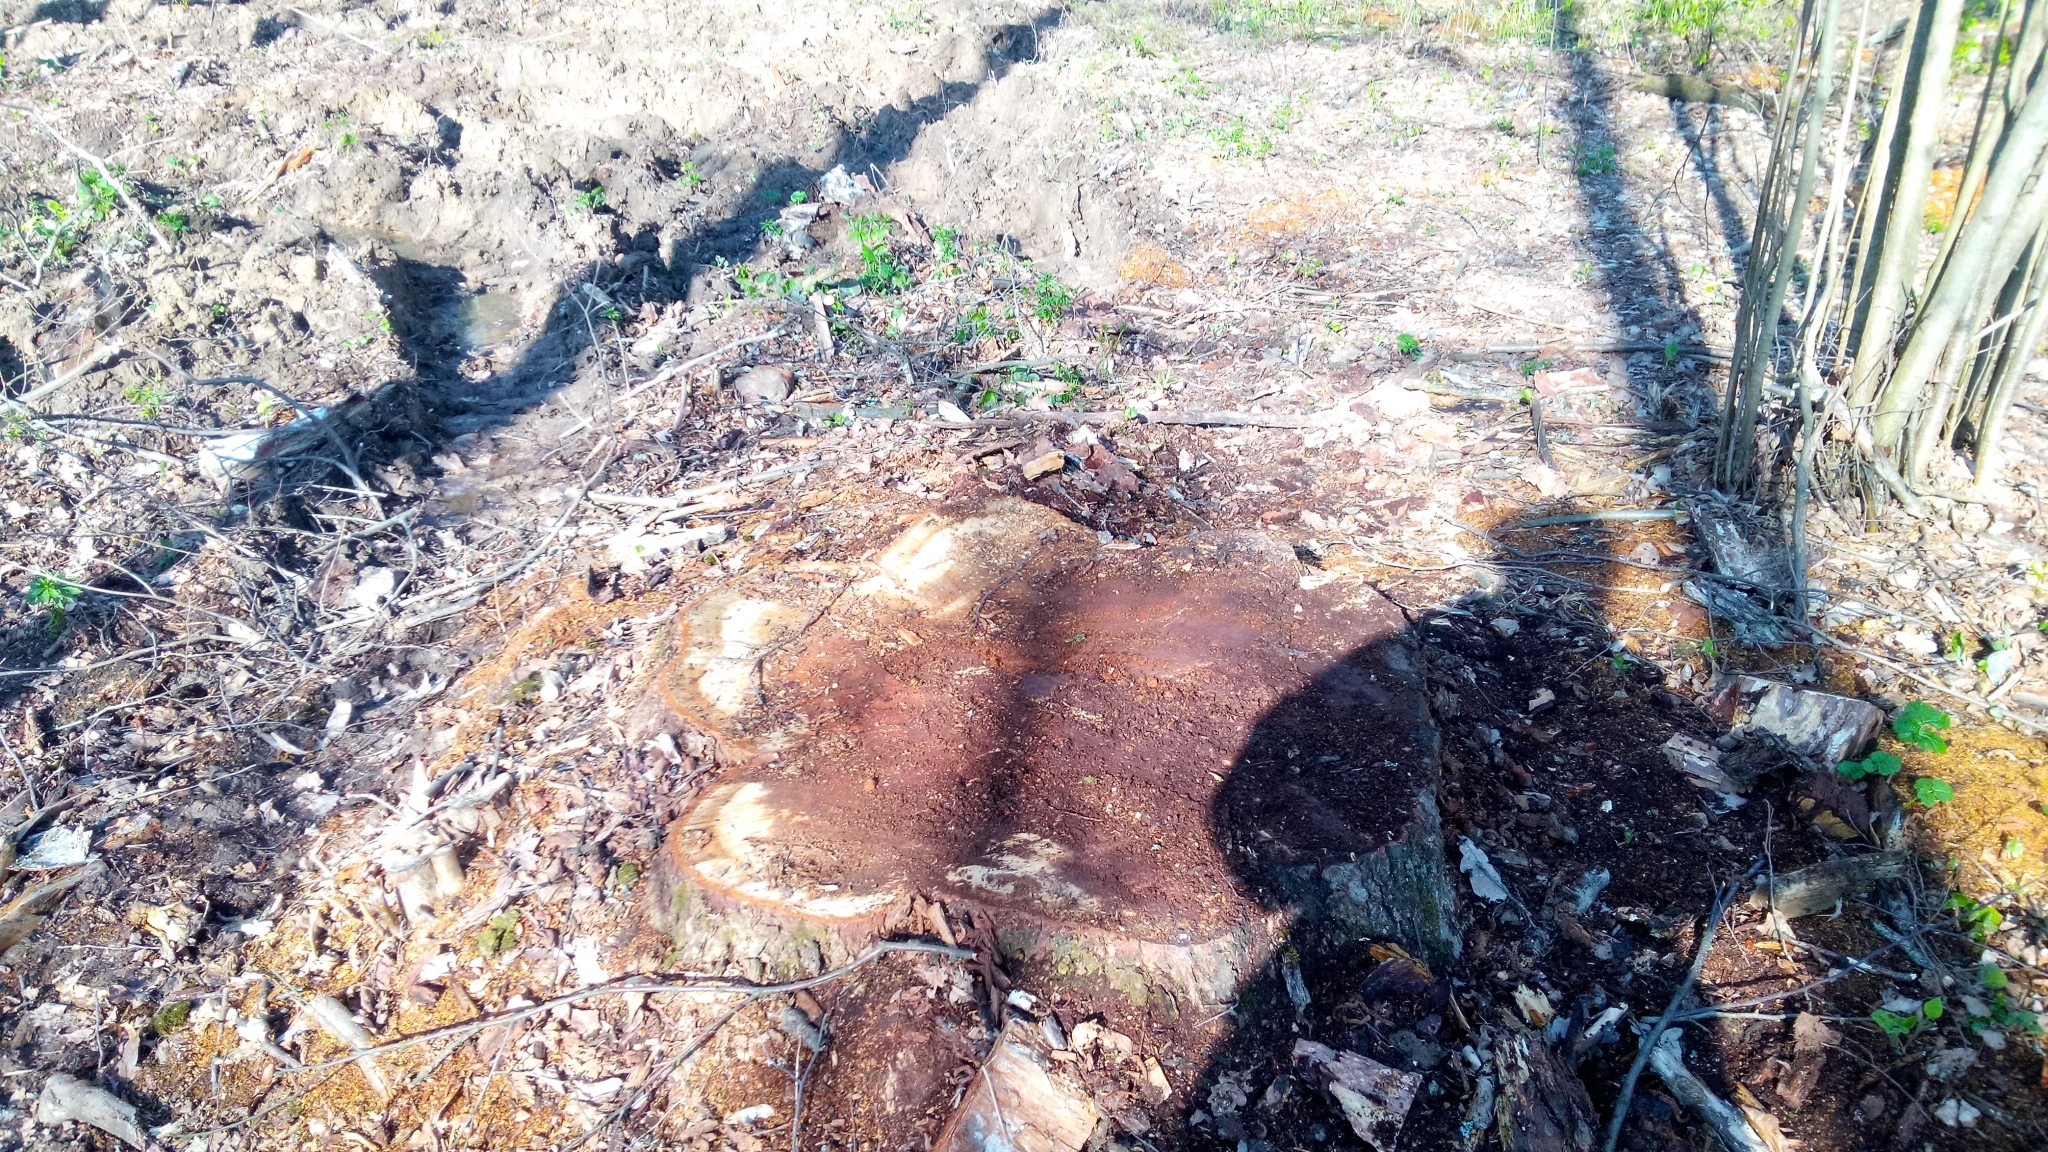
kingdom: Plantae
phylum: Tracheophyta
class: Magnoliopsida
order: Fagales
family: Fagaceae
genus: Quercus
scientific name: Quercus robur
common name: Pedunculate oak
